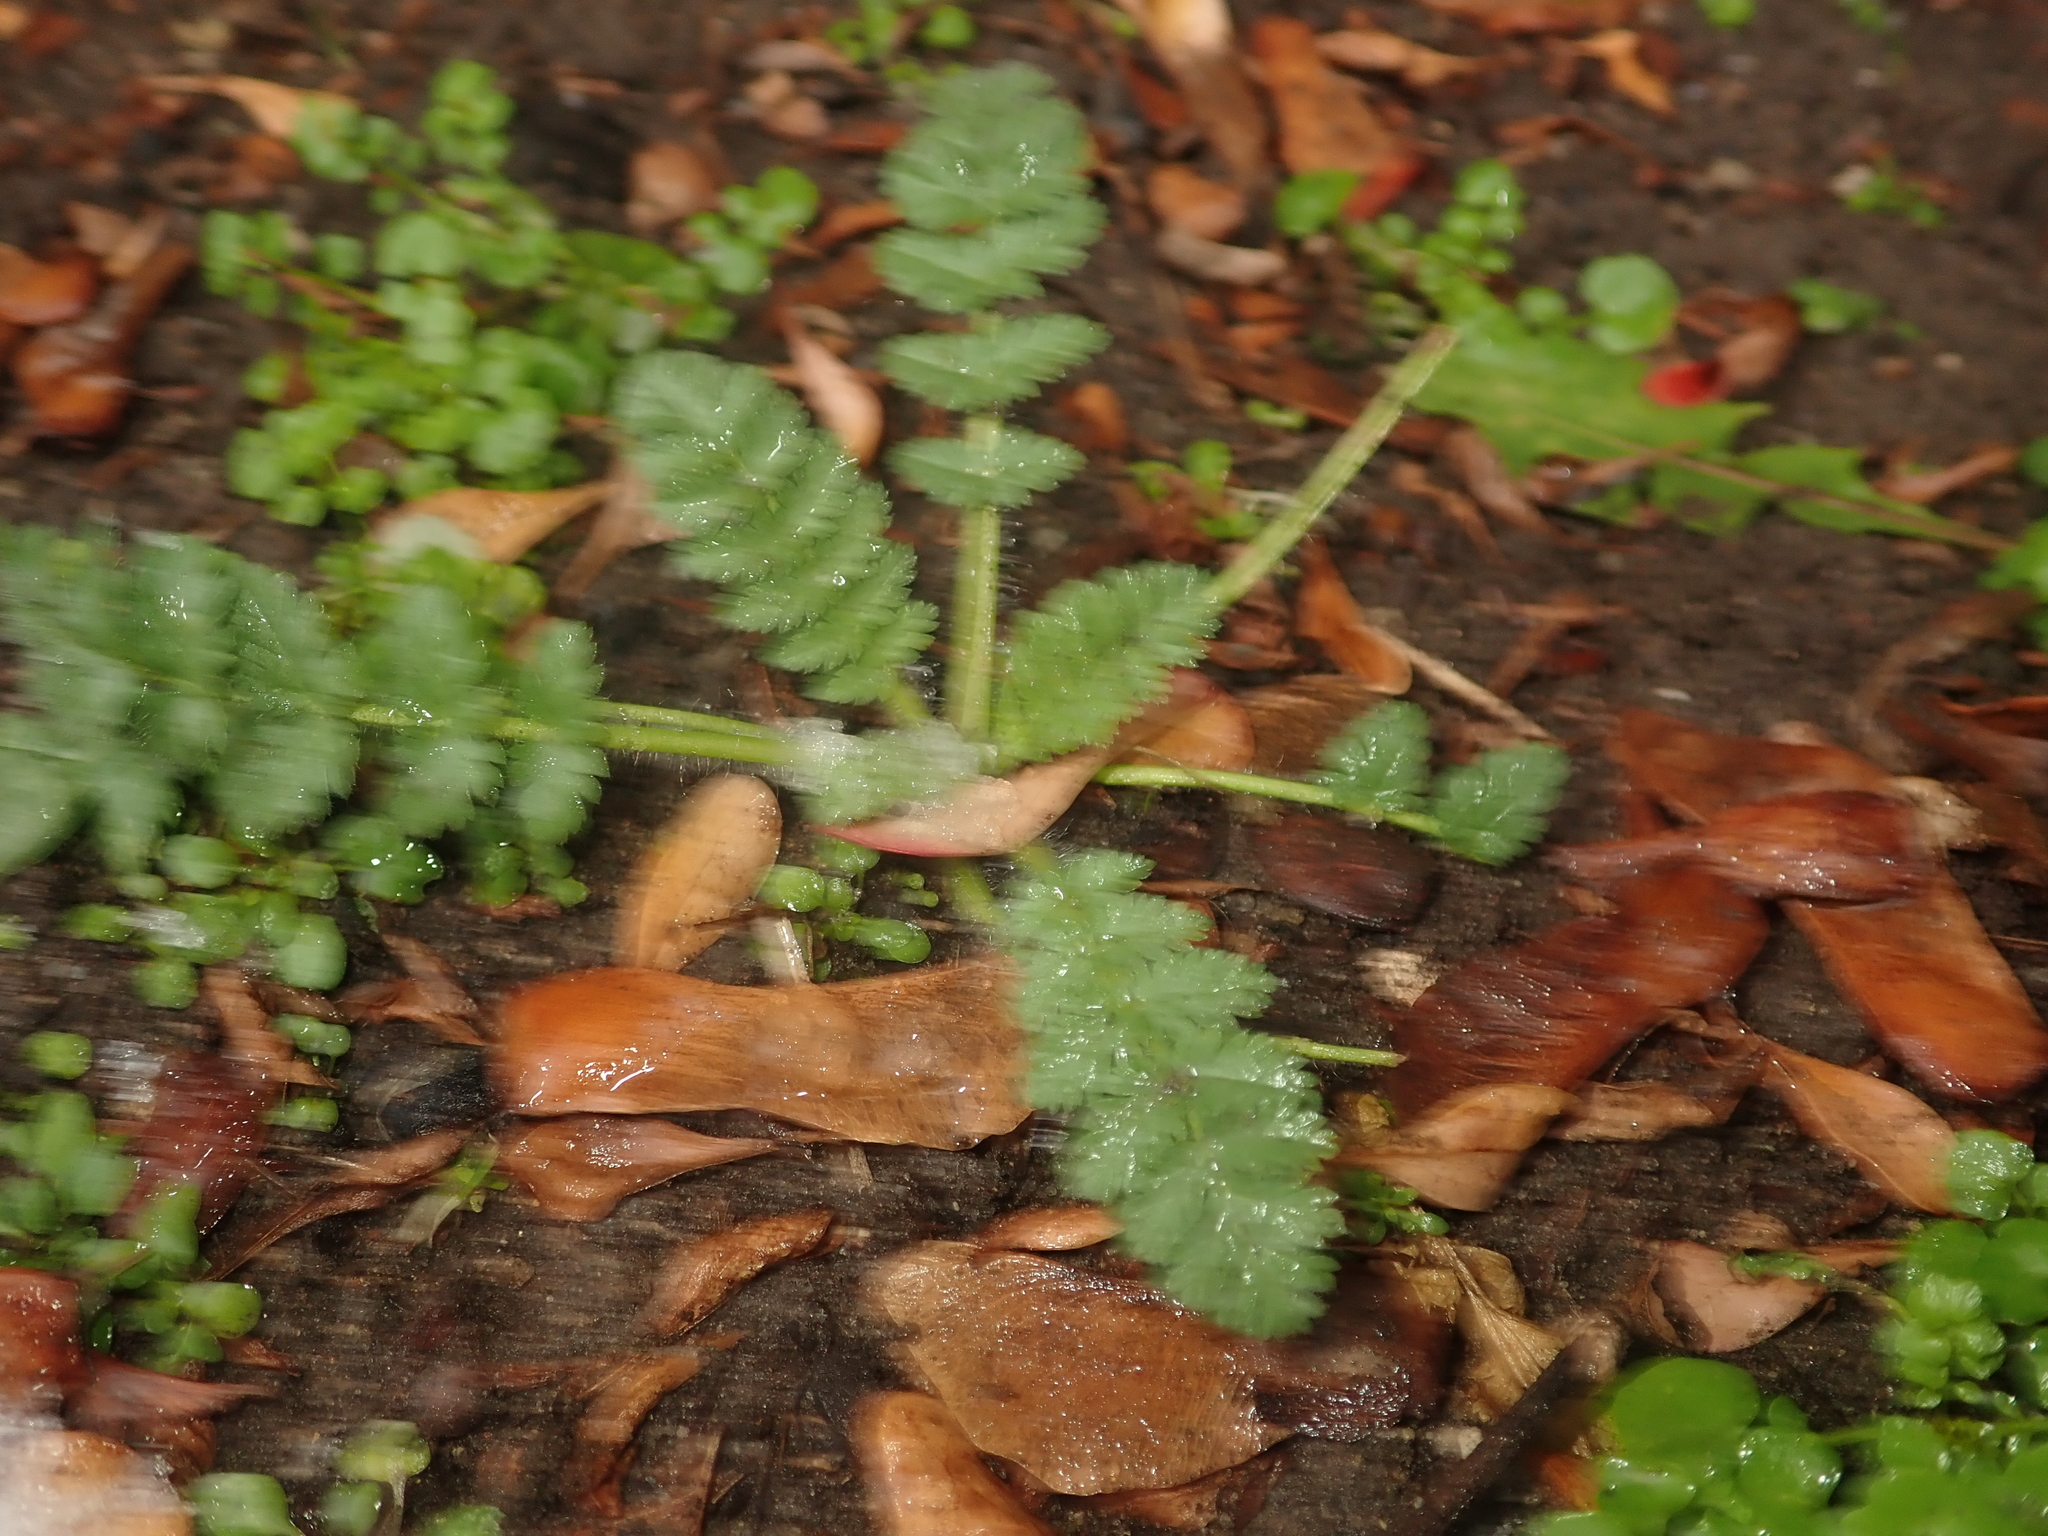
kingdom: Plantae
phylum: Tracheophyta
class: Magnoliopsida
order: Geraniales
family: Geraniaceae
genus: Erodium
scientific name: Erodium cicutarium
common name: Common stork's-bill
